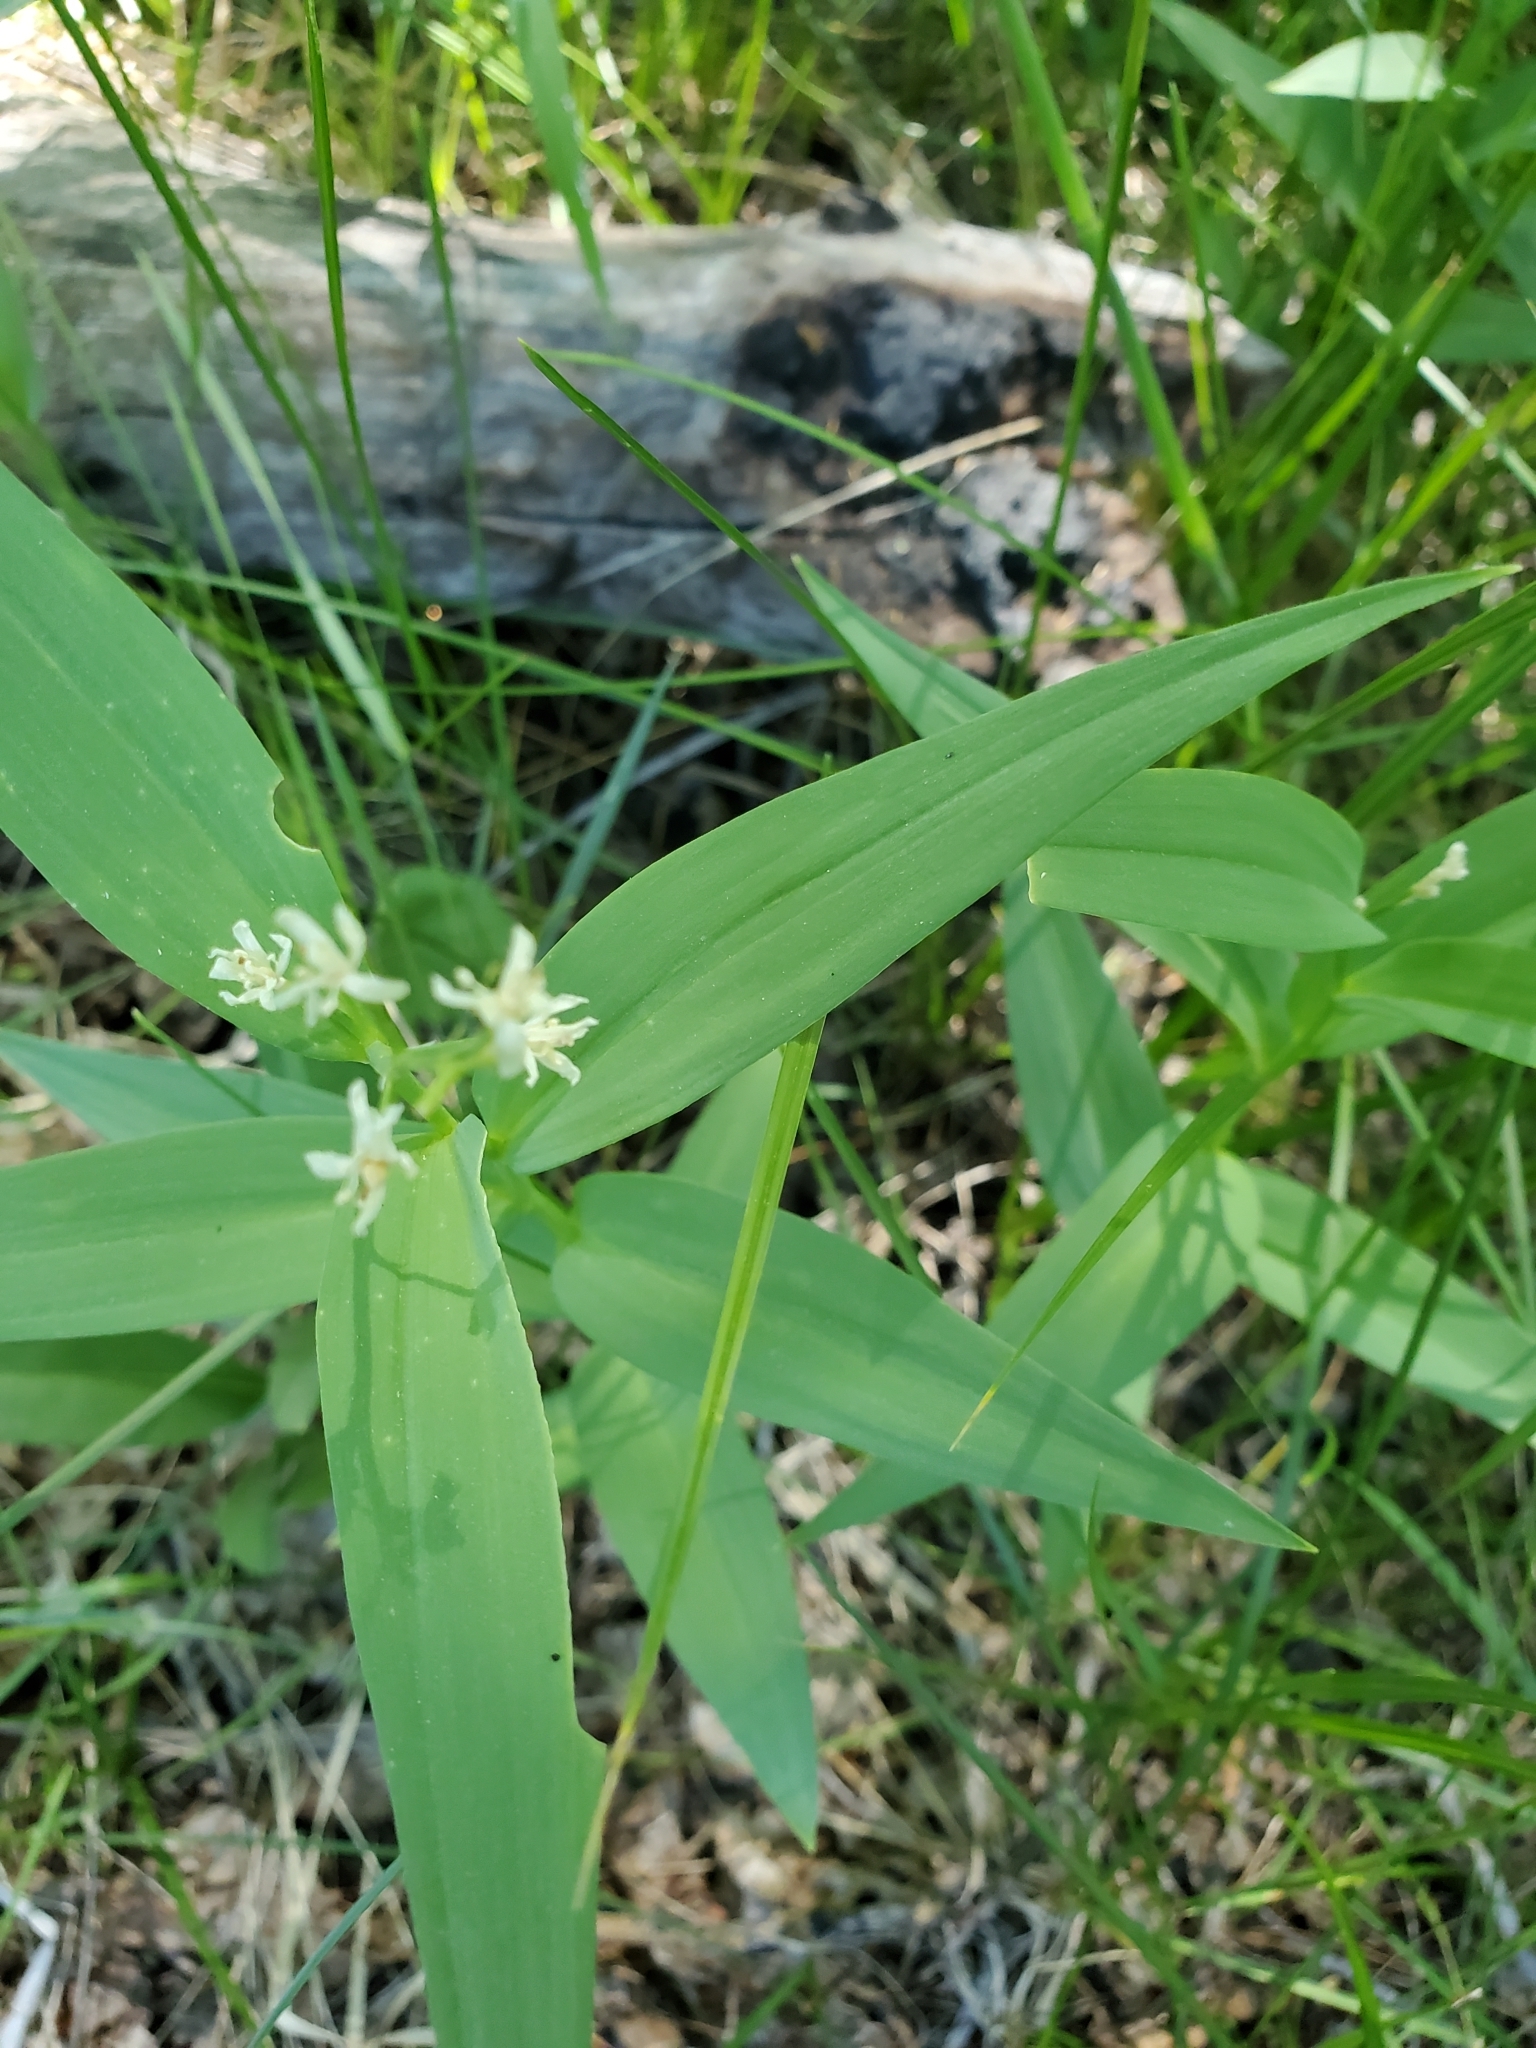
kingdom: Plantae
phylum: Tracheophyta
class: Liliopsida
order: Asparagales
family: Asparagaceae
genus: Maianthemum
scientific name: Maianthemum stellatum
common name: Little false solomon's seal
